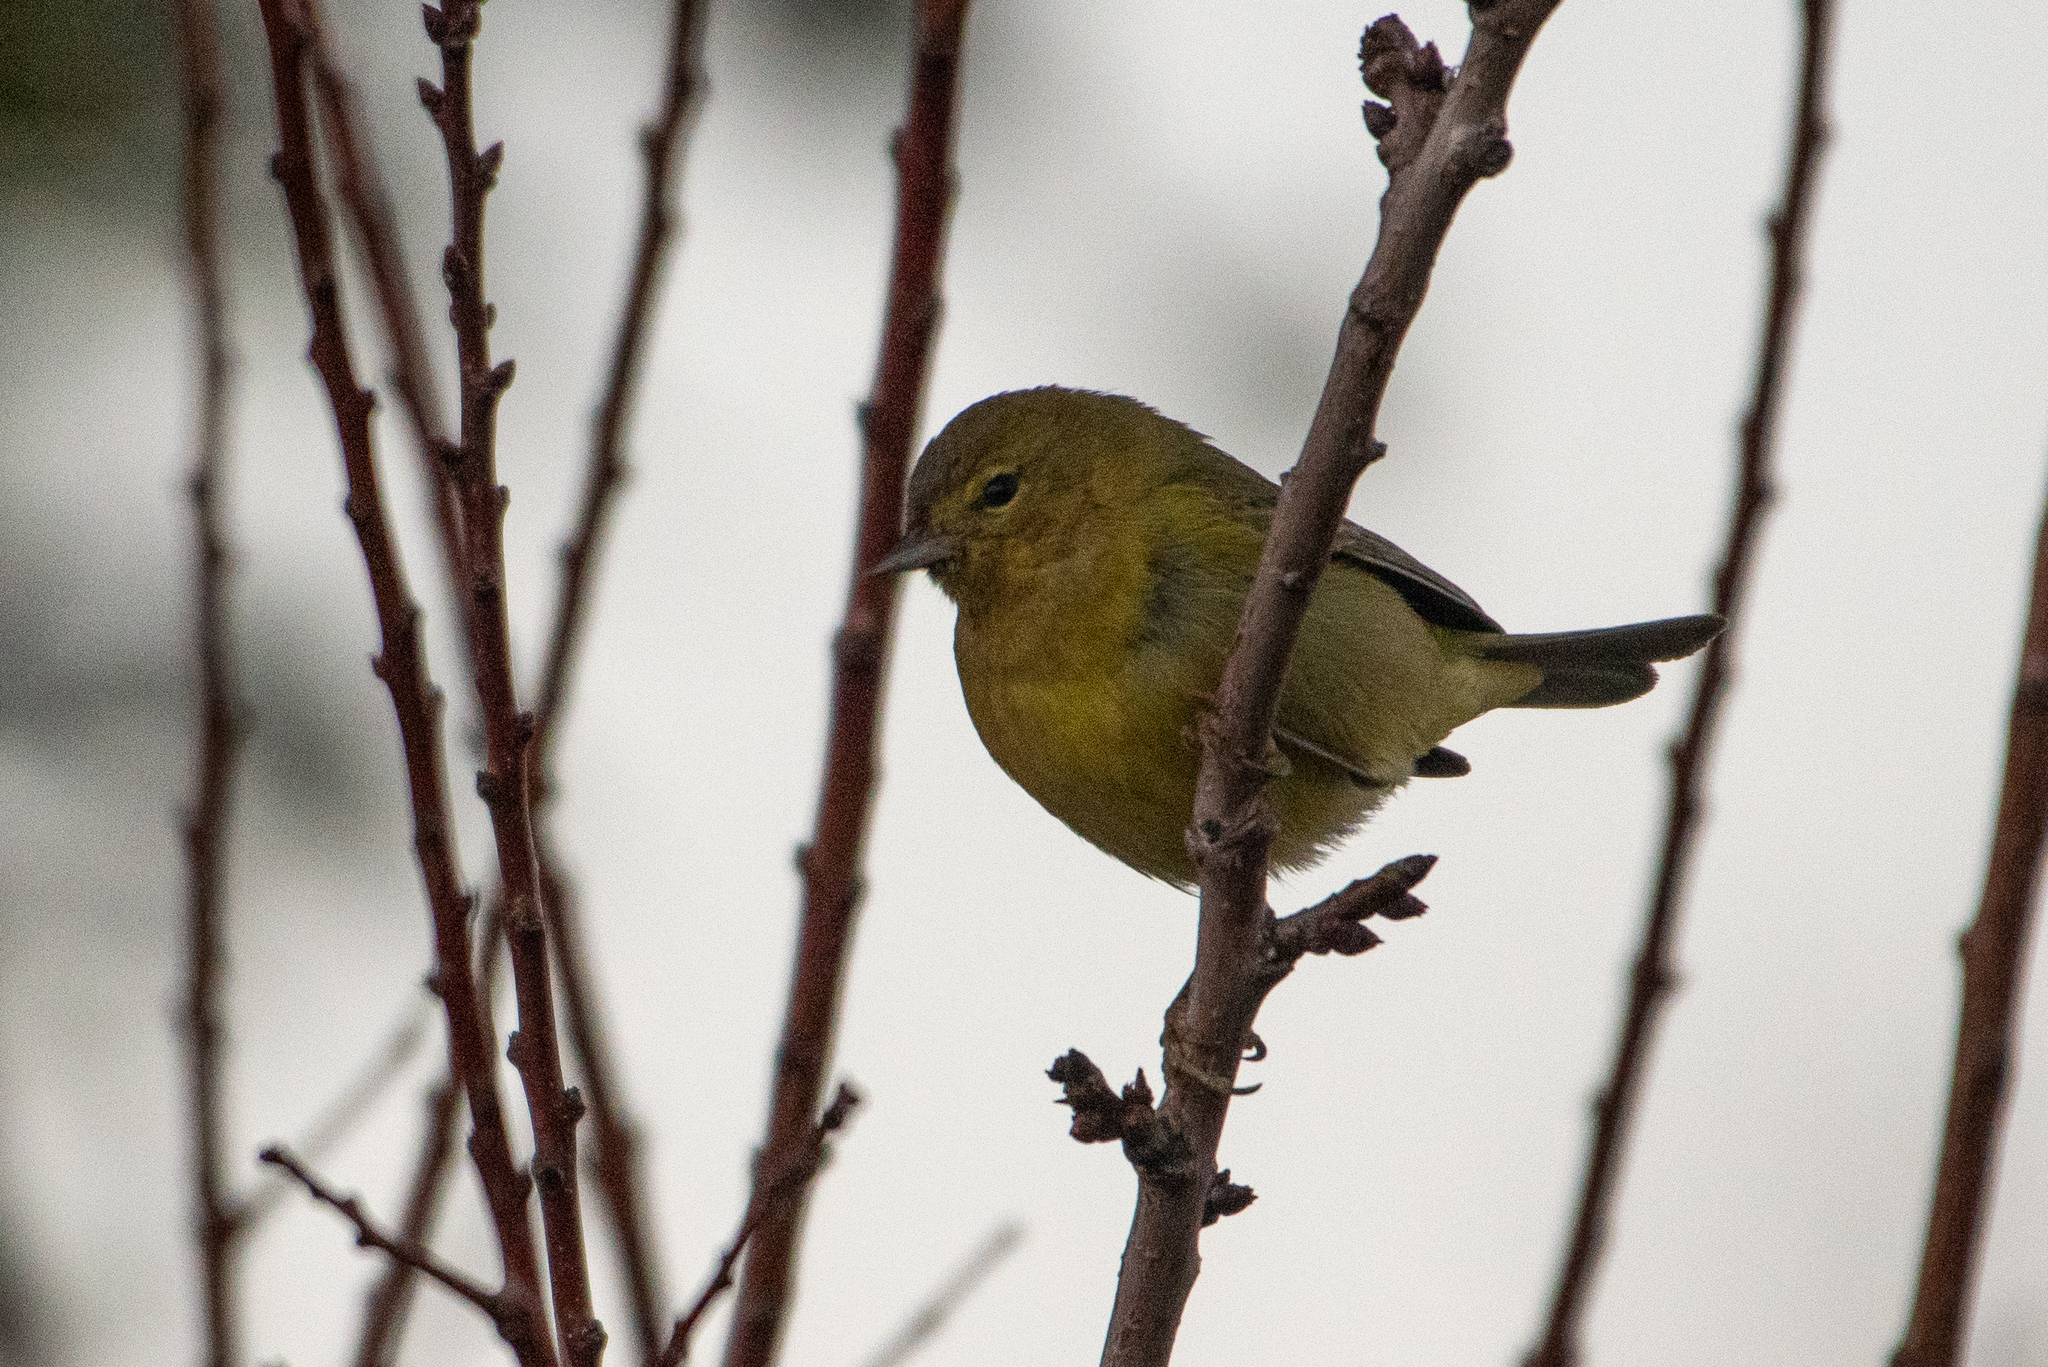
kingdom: Animalia
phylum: Chordata
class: Aves
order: Passeriformes
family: Parulidae
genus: Leiothlypis
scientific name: Leiothlypis celata
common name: Orange-crowned warbler
